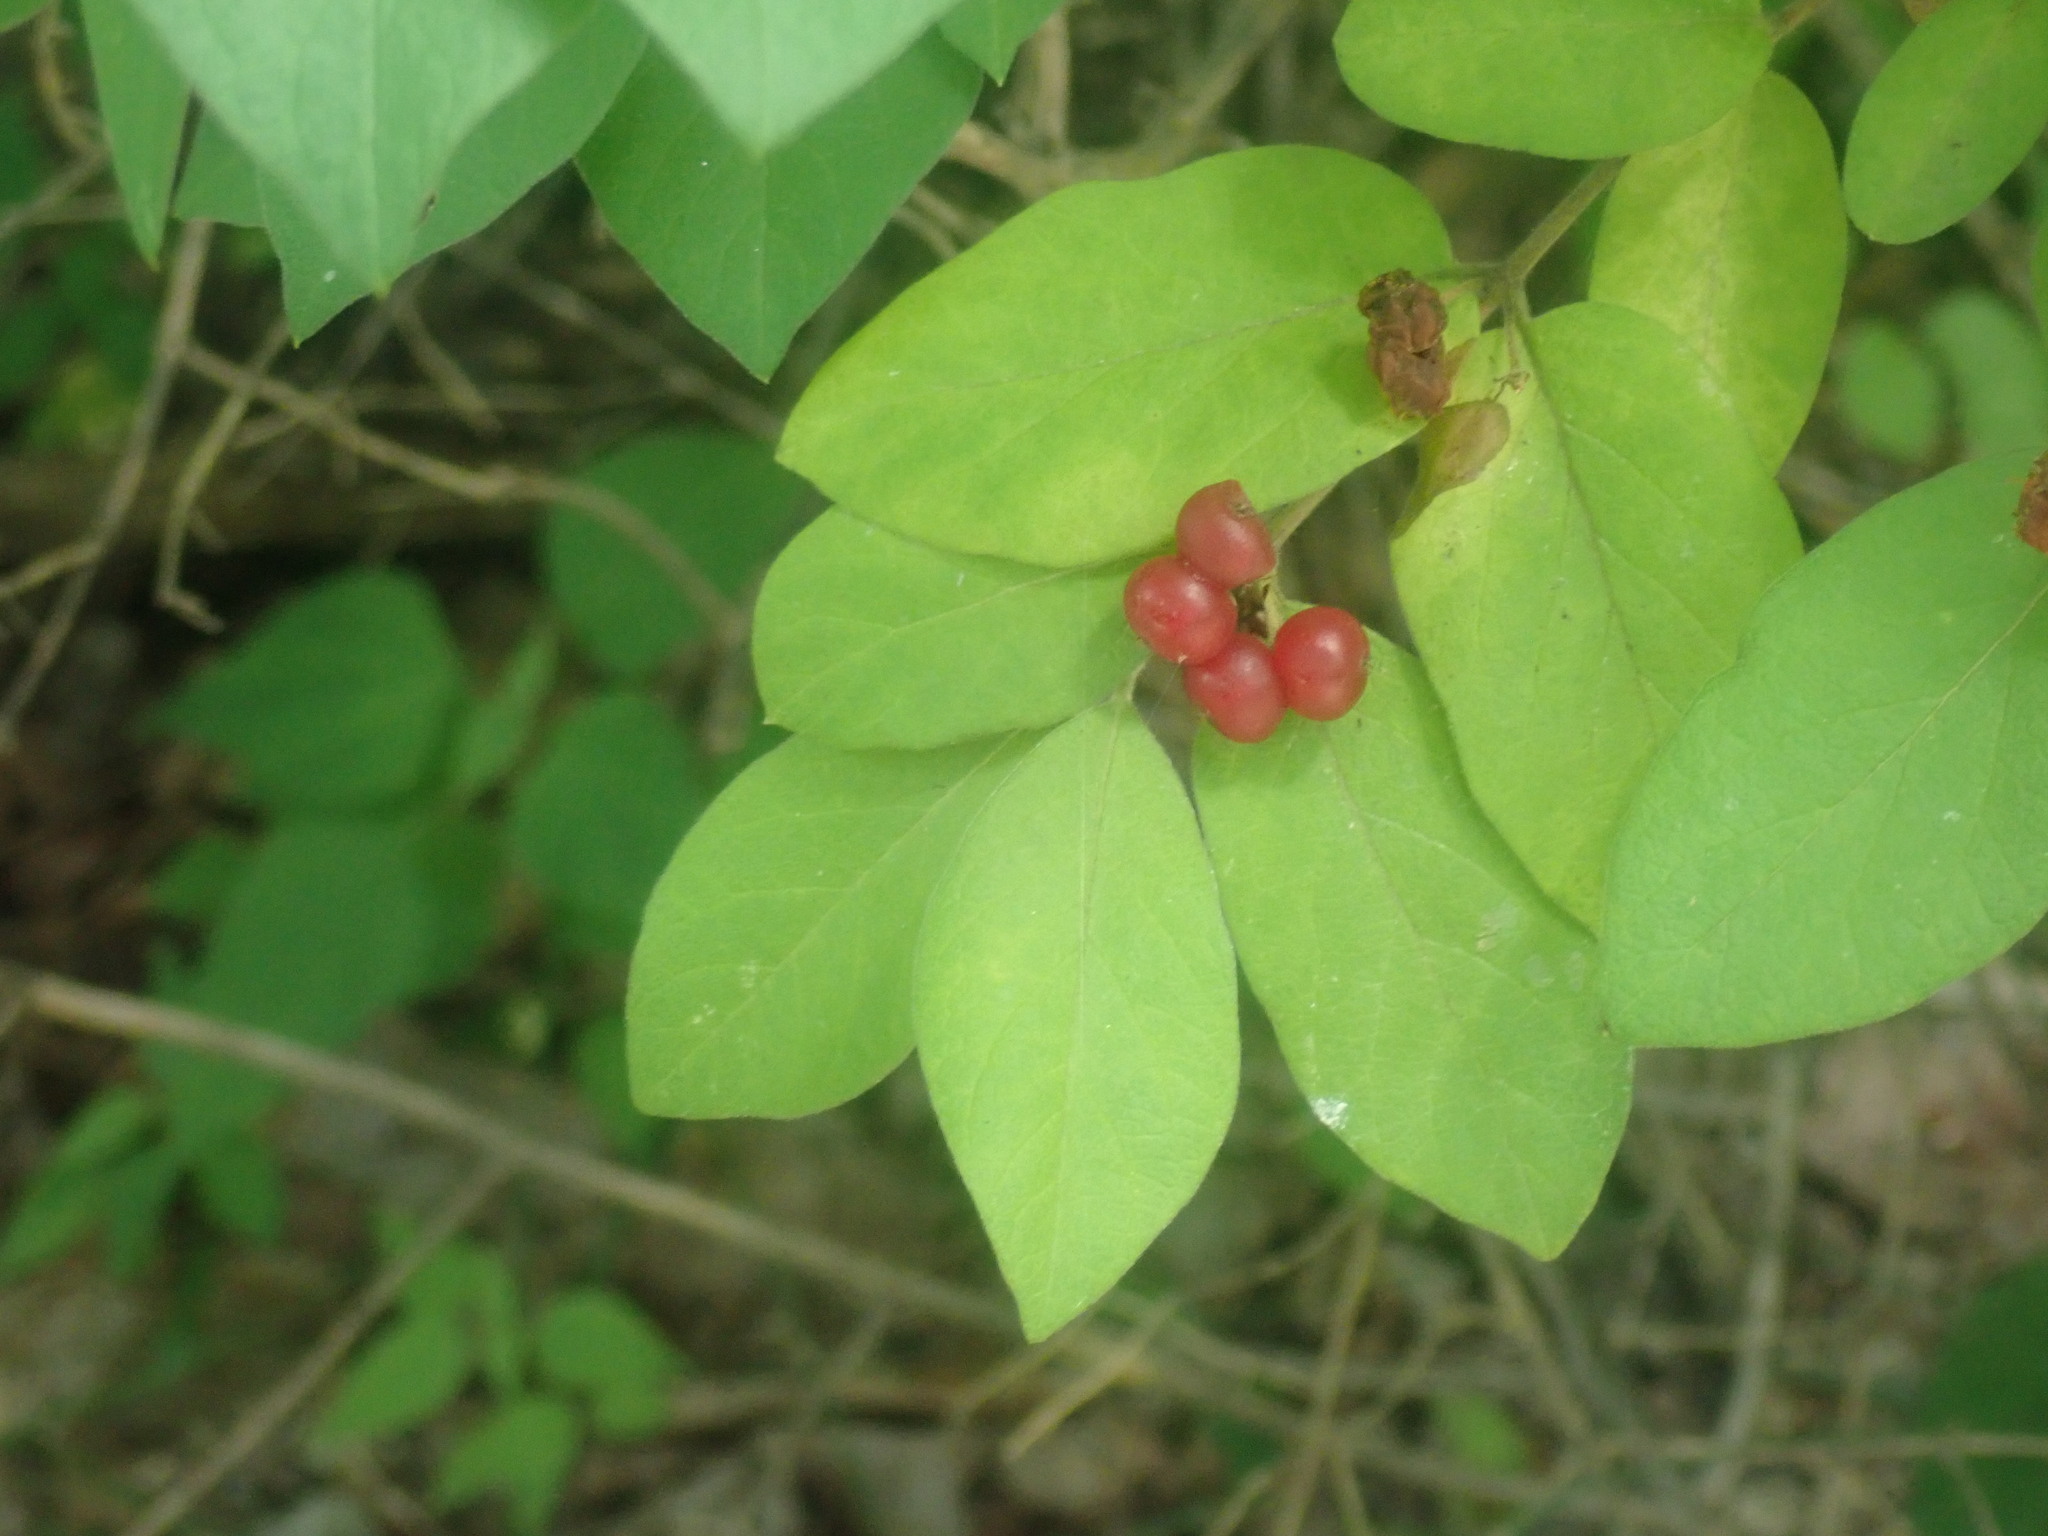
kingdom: Plantae
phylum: Tracheophyta
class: Magnoliopsida
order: Dipsacales
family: Caprifoliaceae
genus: Lonicera
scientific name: Lonicera
